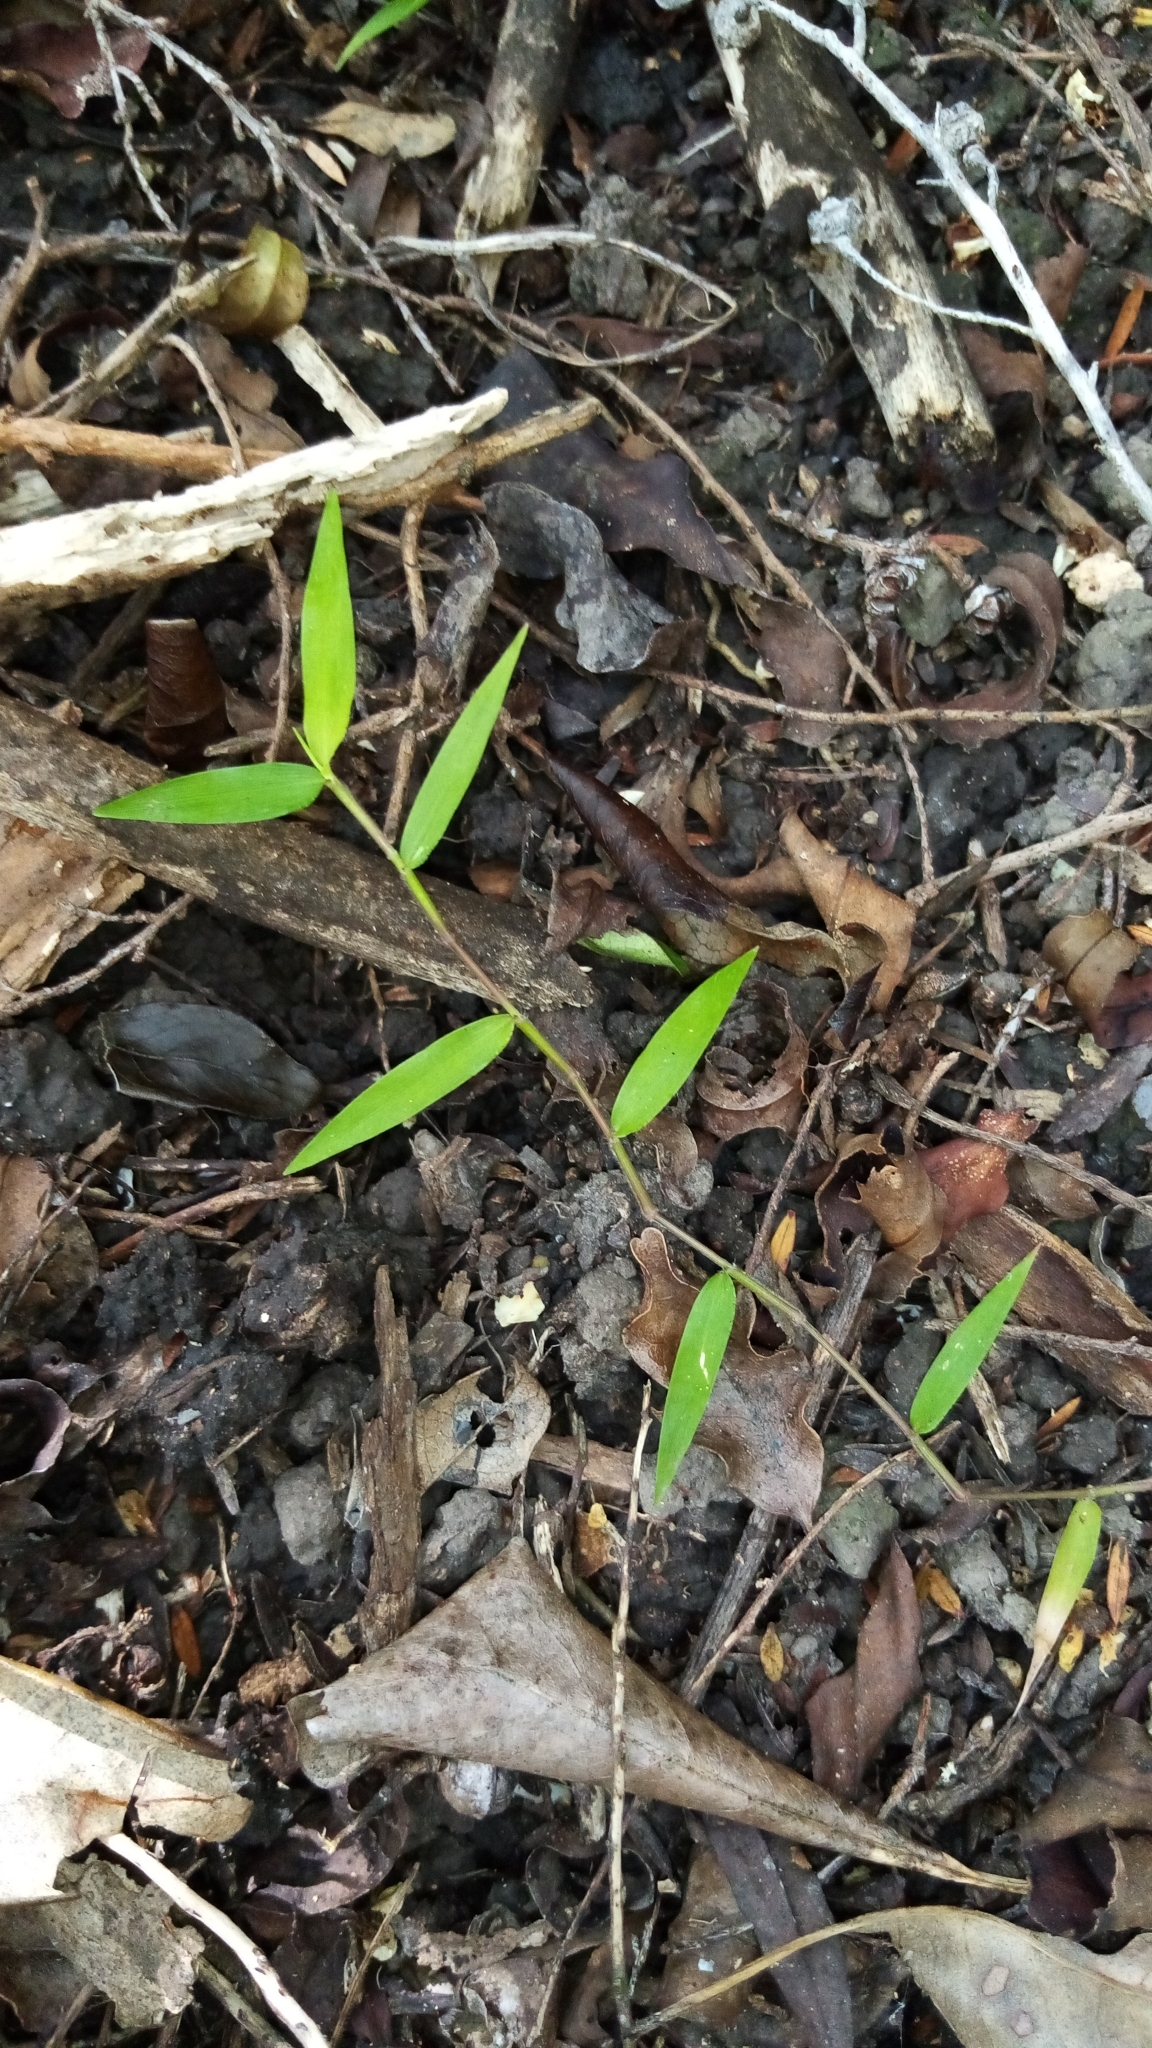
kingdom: Plantae
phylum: Tracheophyta
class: Liliopsida
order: Poales
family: Poaceae
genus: Oplismenus
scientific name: Oplismenus hirtellus
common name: Basketgrass
